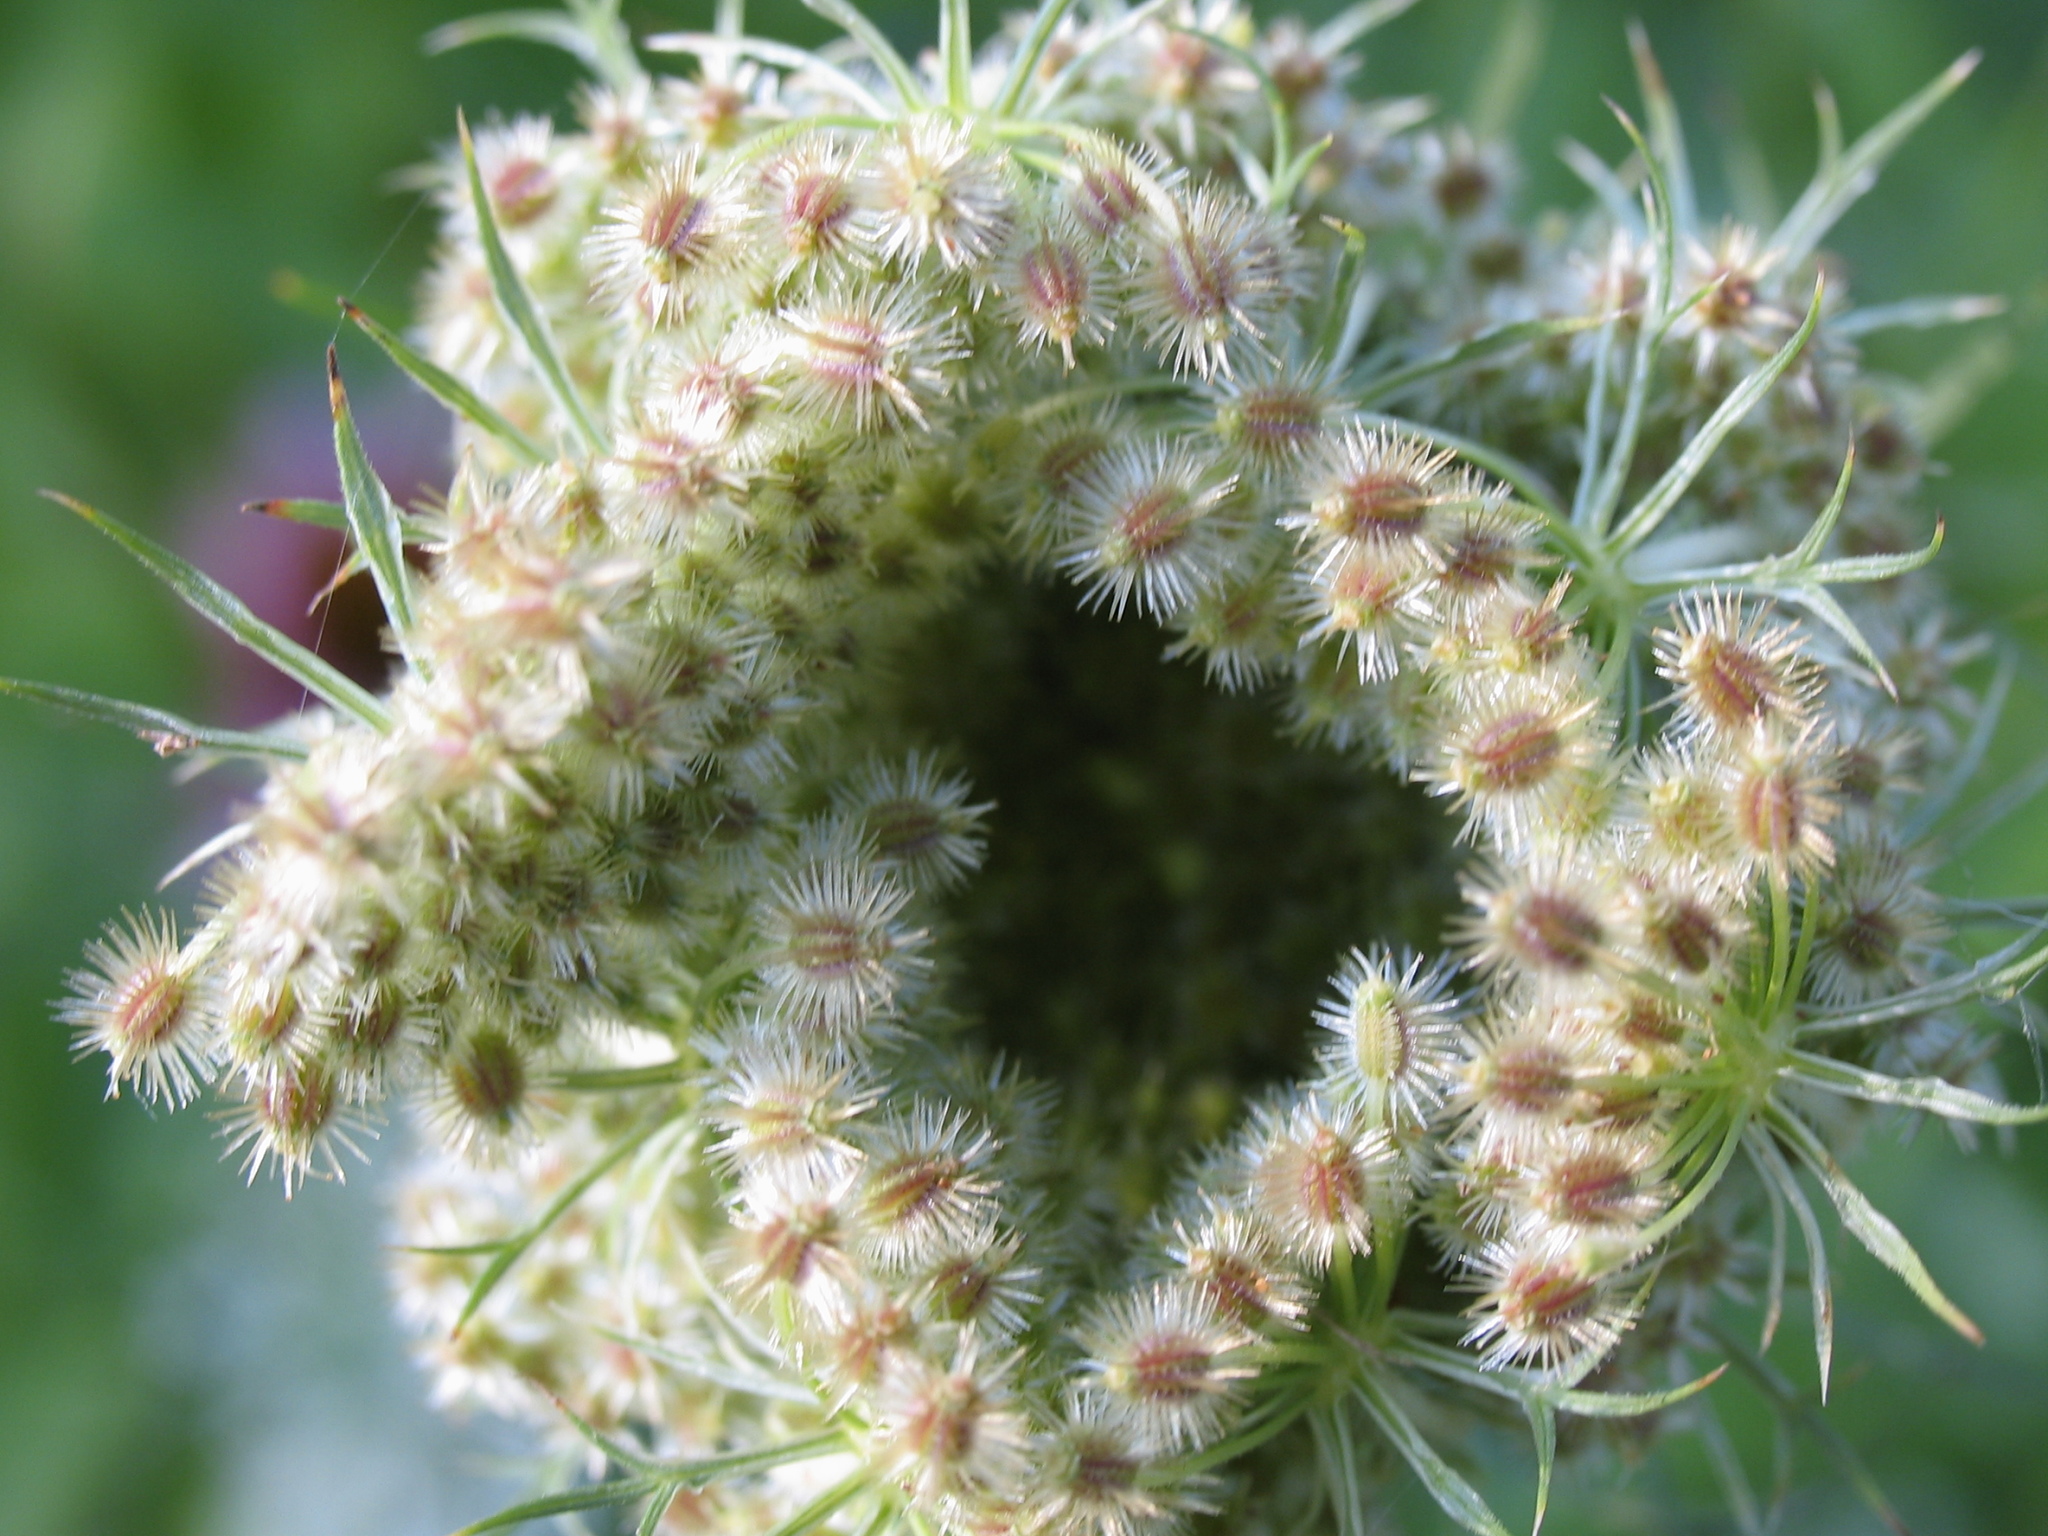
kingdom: Plantae
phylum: Tracheophyta
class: Magnoliopsida
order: Apiales
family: Apiaceae
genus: Daucus
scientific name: Daucus carota
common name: Wild carrot
